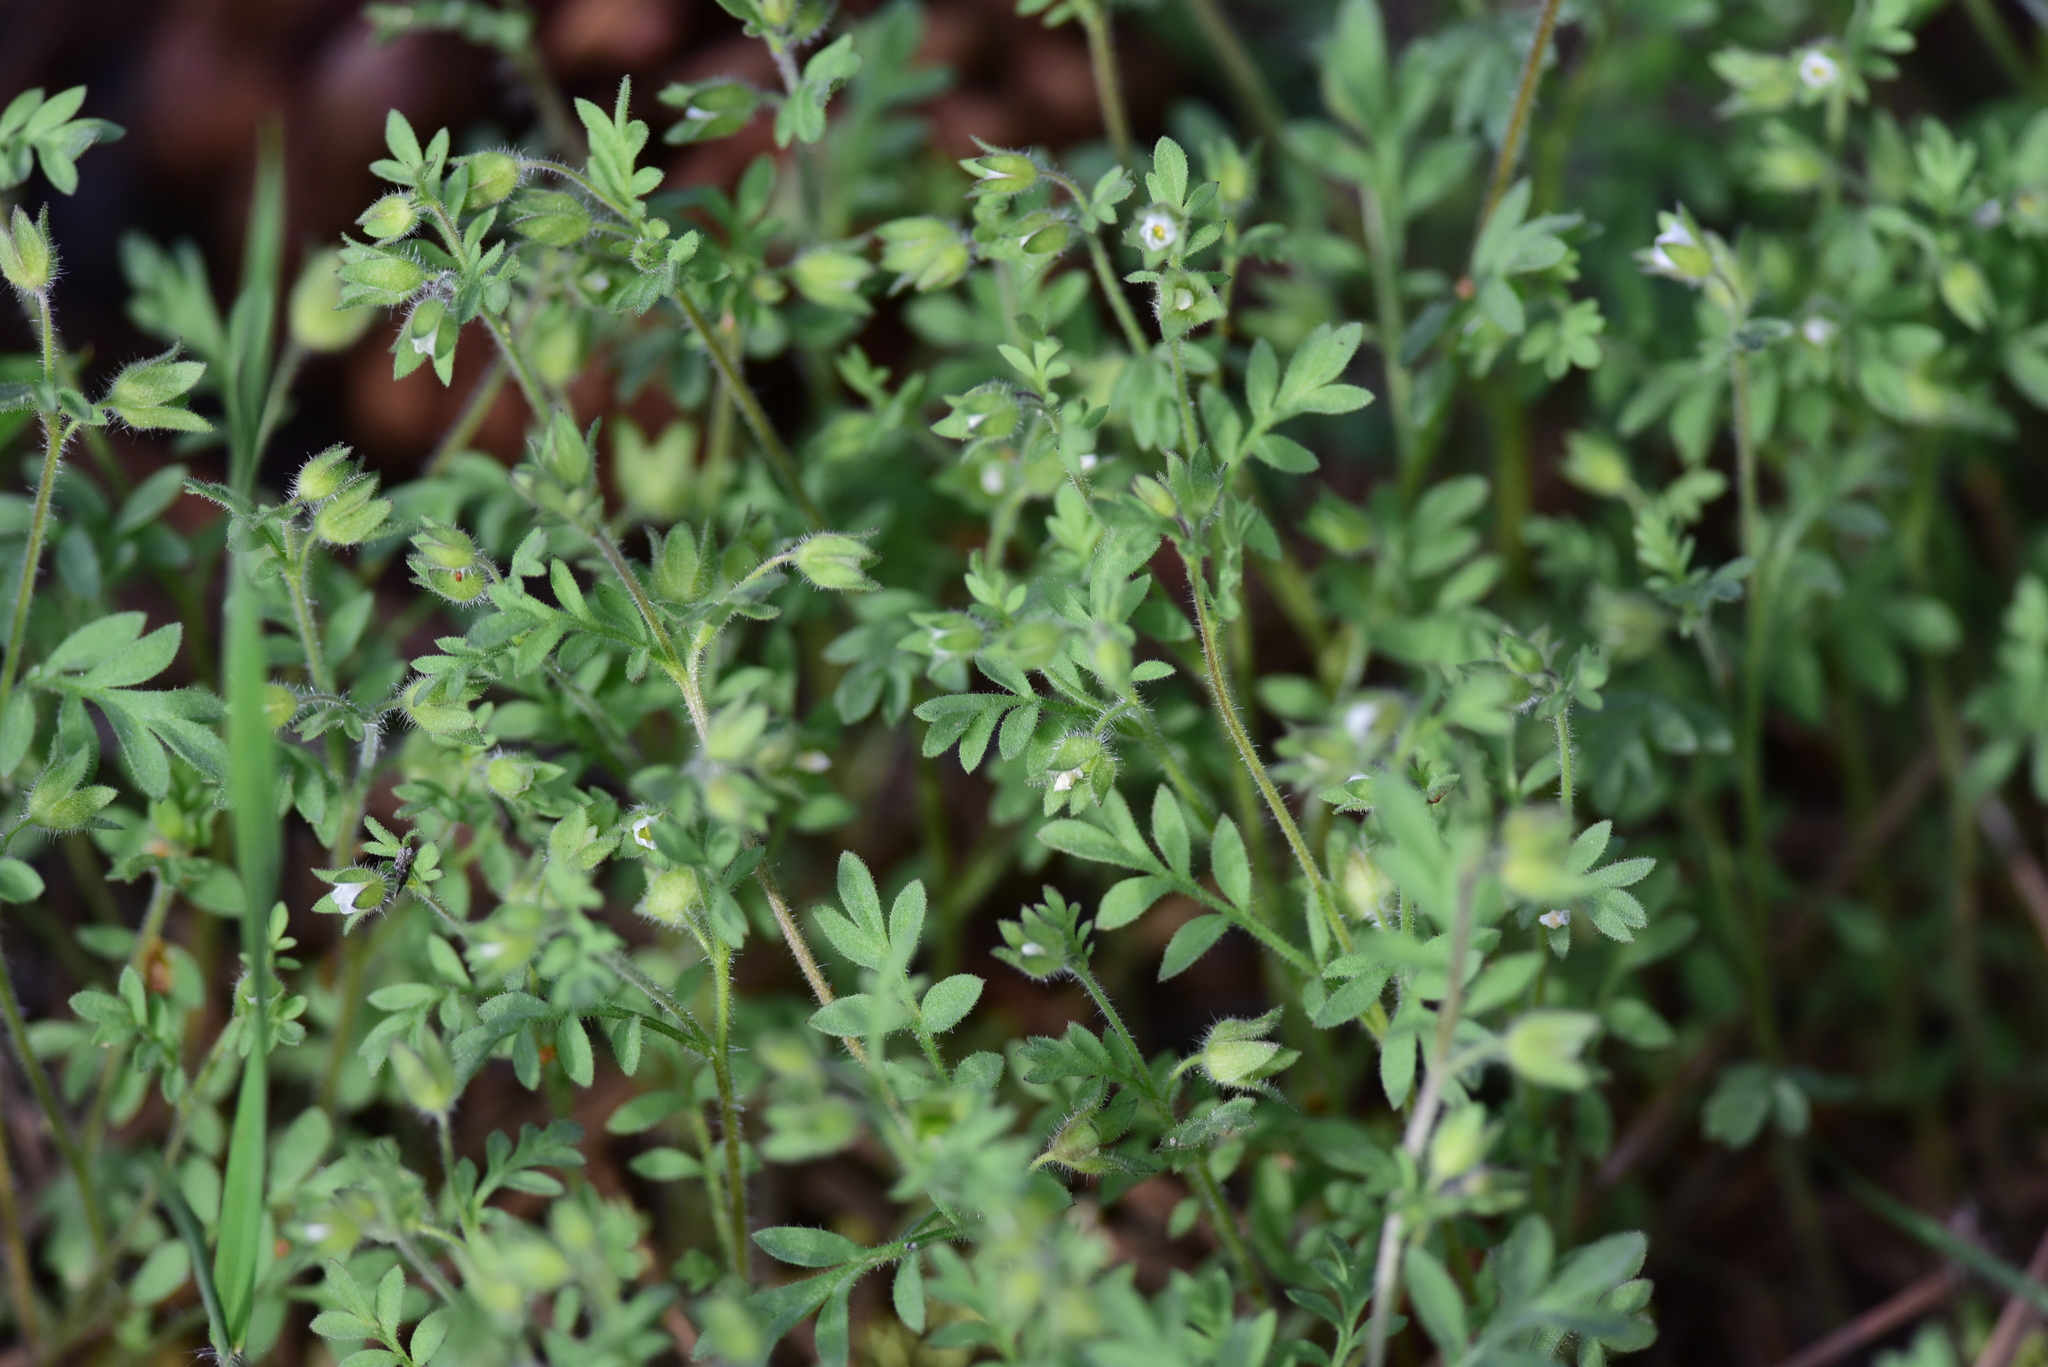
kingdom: Plantae
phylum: Tracheophyta
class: Magnoliopsida
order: Ericales
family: Polemoniaceae
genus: Polemonium
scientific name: Polemonium micranthum
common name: Annual jacob's-ladder
